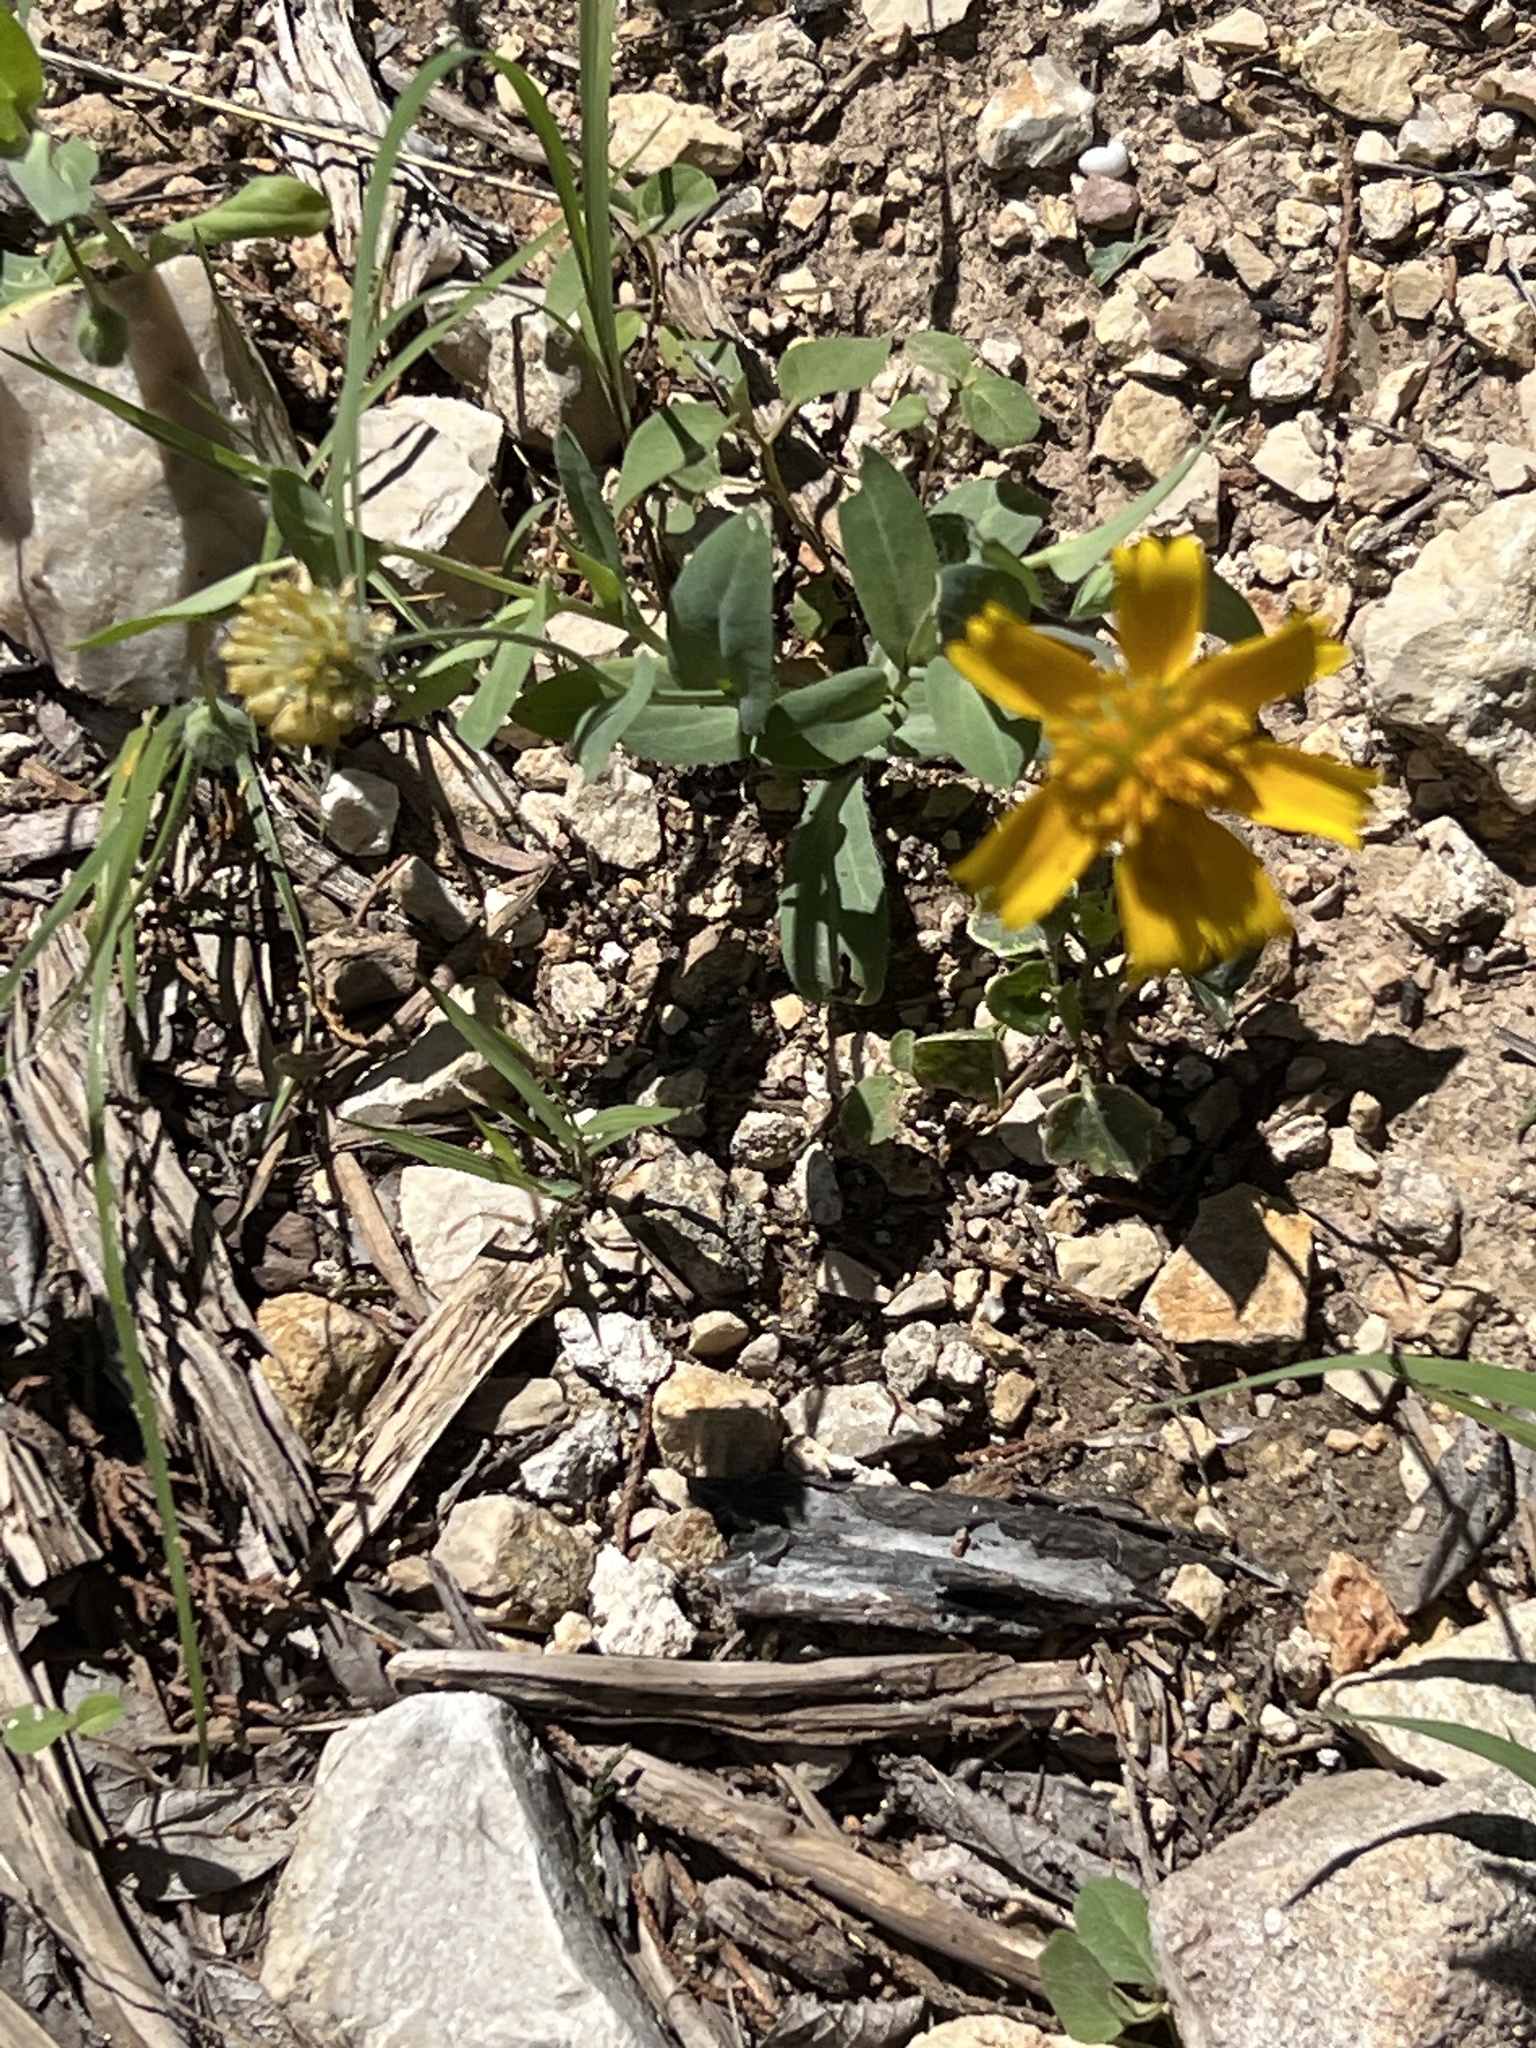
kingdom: Plantae
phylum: Tracheophyta
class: Magnoliopsida
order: Asterales
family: Asteraceae
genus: Amblyolepis
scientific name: Amblyolepis setigera
